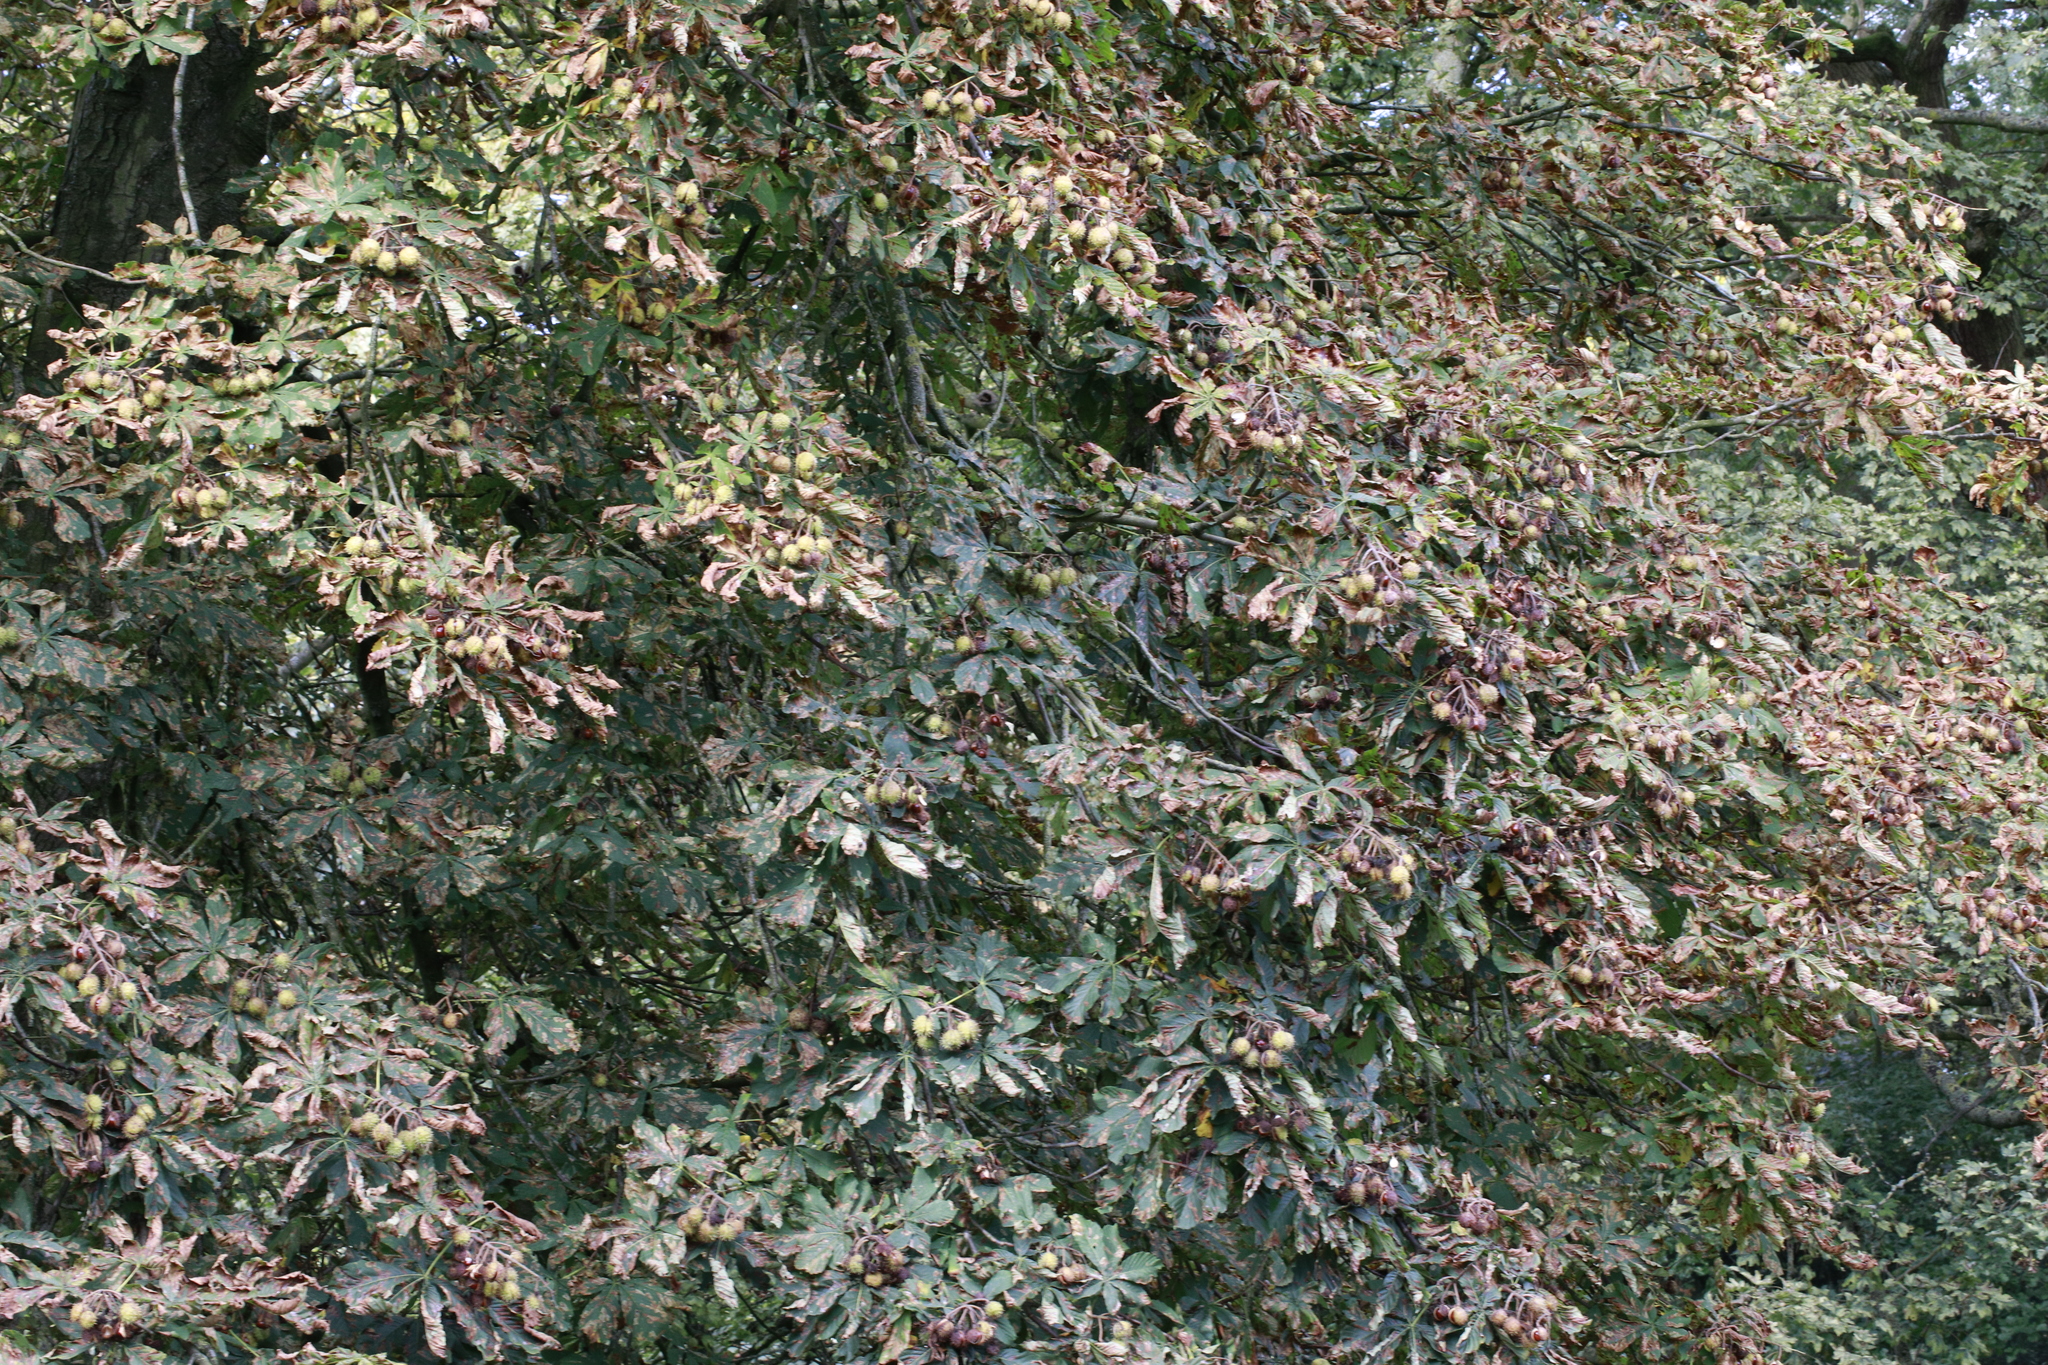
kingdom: Plantae
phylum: Tracheophyta
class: Magnoliopsida
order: Sapindales
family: Sapindaceae
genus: Aesculus
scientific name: Aesculus hippocastanum
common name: Horse-chestnut
